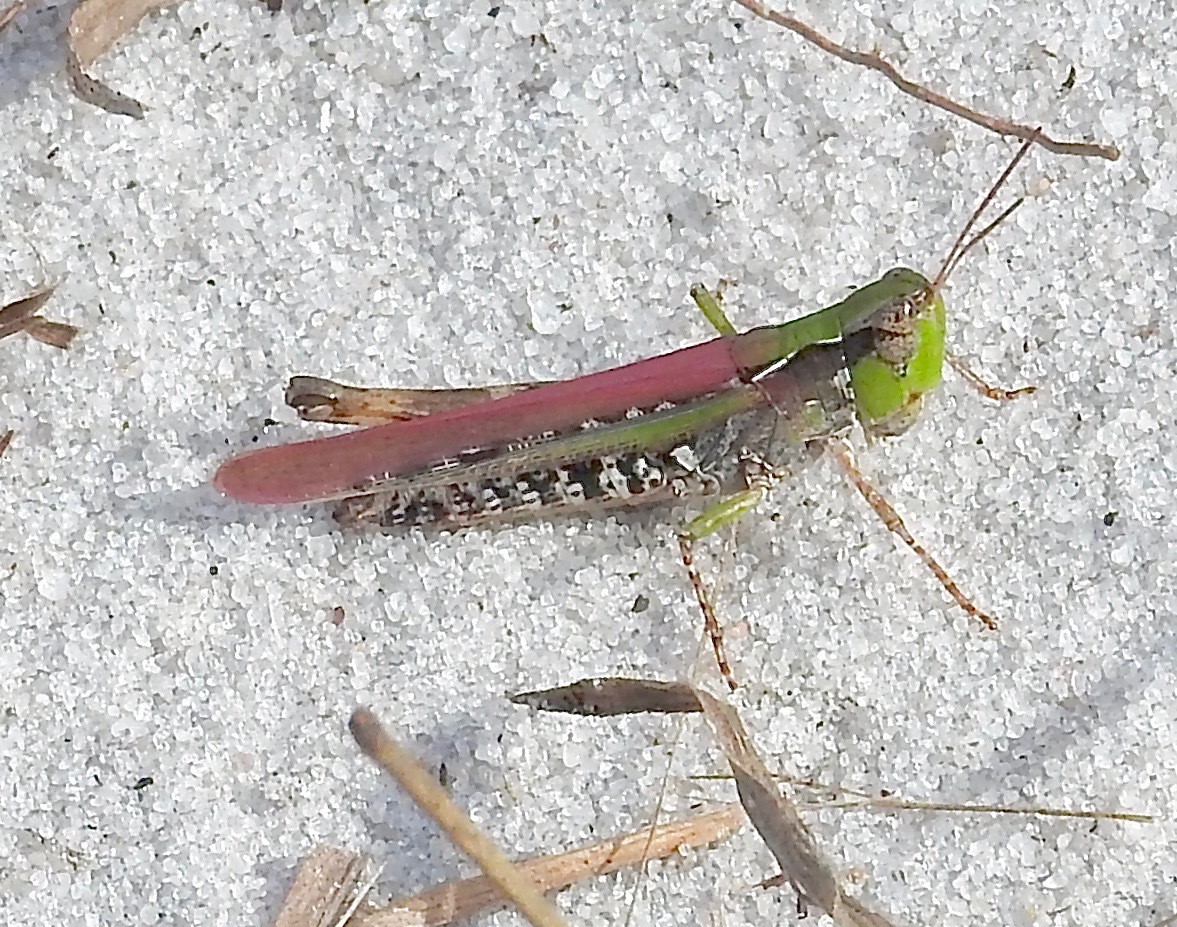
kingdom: Animalia
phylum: Arthropoda
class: Insecta
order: Orthoptera
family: Acrididae
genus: Orphulella
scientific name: Orphulella pelidna
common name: Spotted-wing grasshopper
